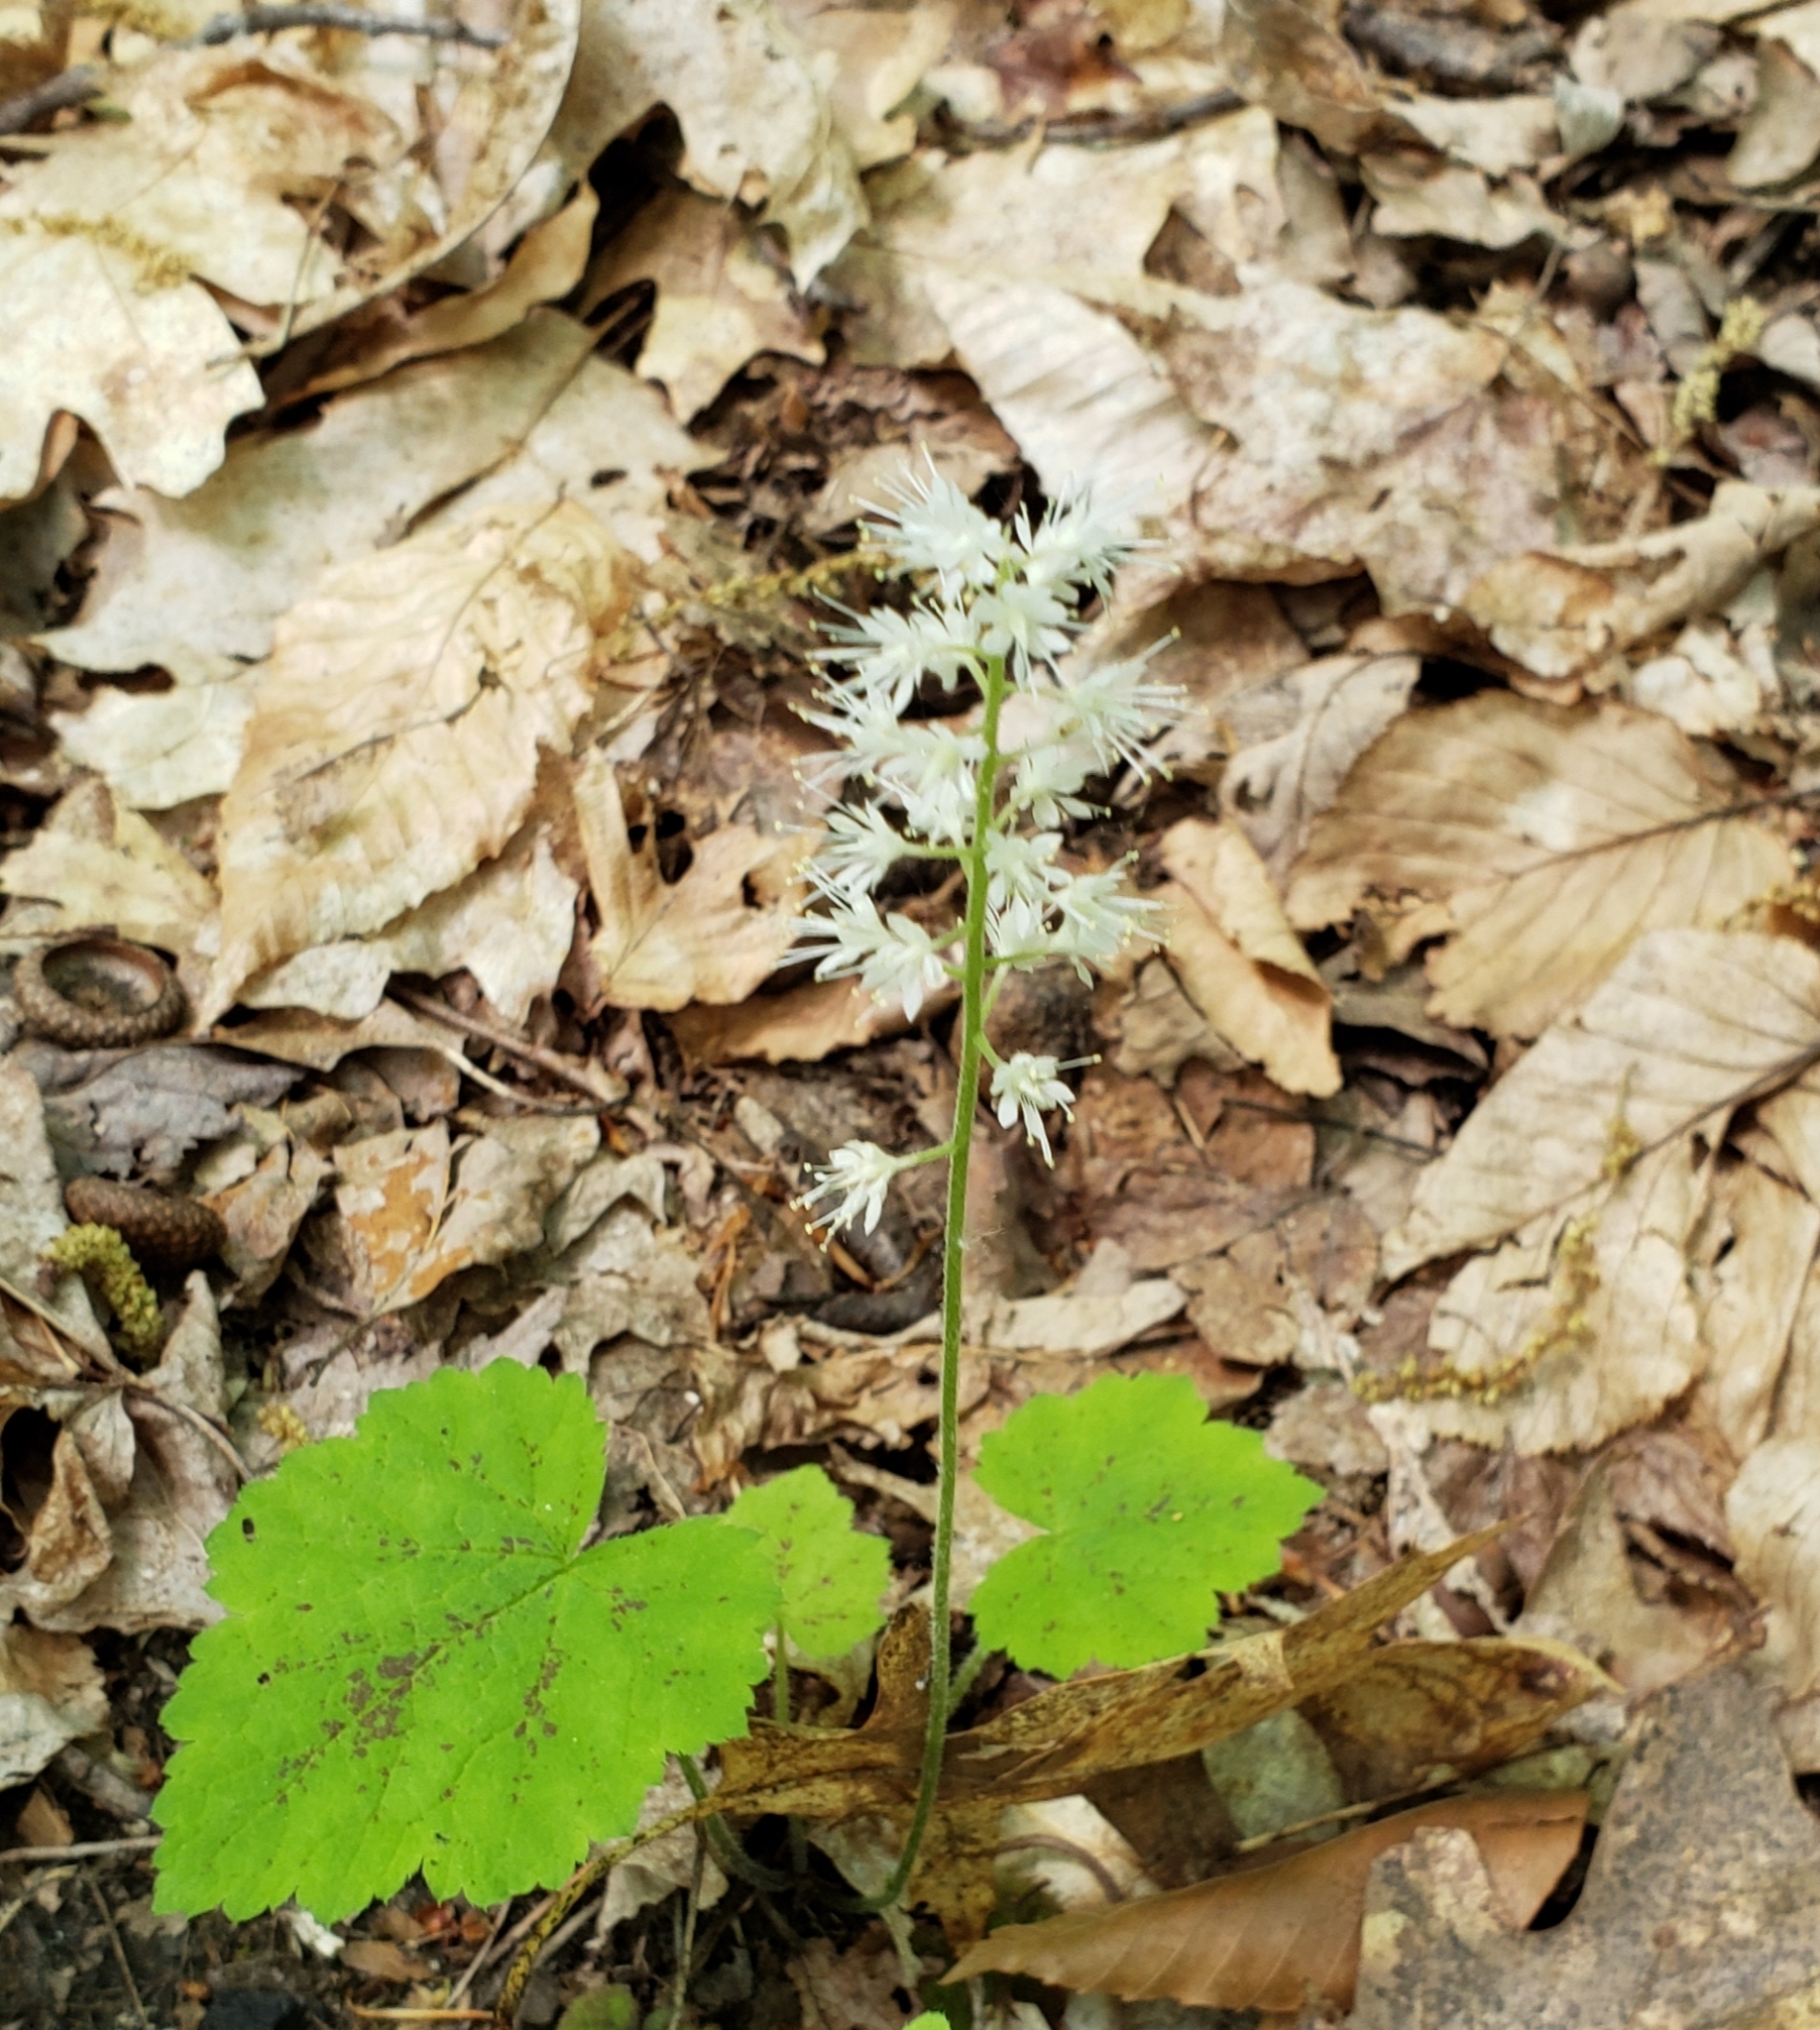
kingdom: Plantae
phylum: Tracheophyta
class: Magnoliopsida
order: Saxifragales
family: Saxifragaceae
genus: Tiarella
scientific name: Tiarella stolonifera
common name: Stoloniferous foamflower
